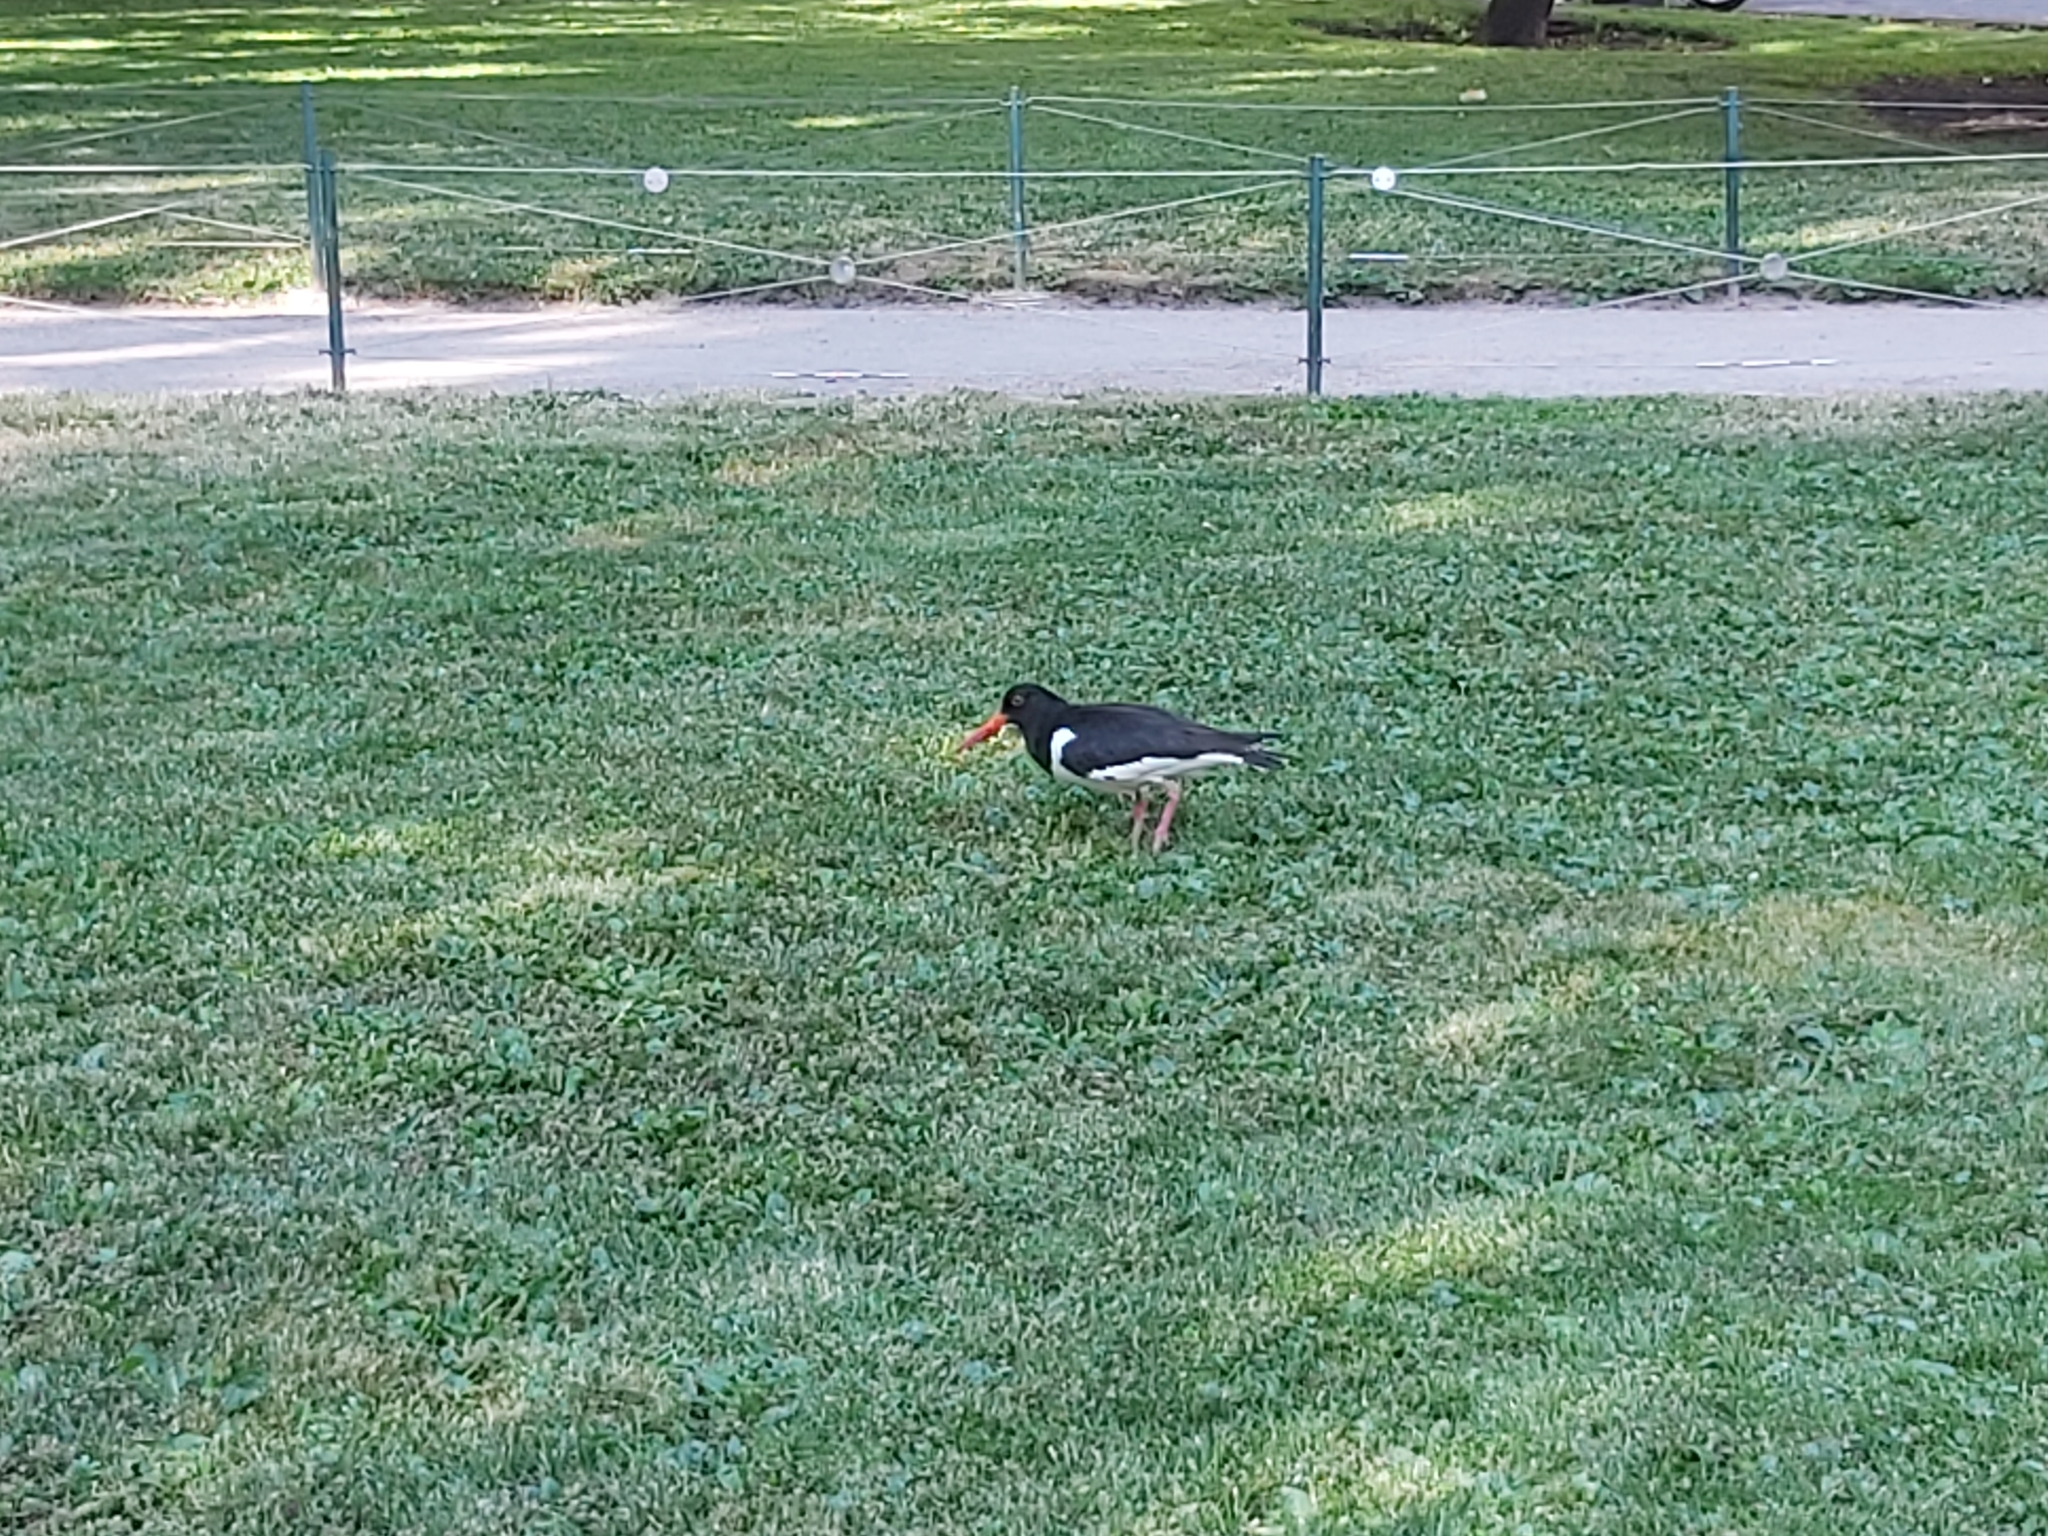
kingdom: Animalia
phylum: Chordata
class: Aves
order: Charadriiformes
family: Haematopodidae
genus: Haematopus
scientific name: Haematopus ostralegus
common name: Eurasian oystercatcher
